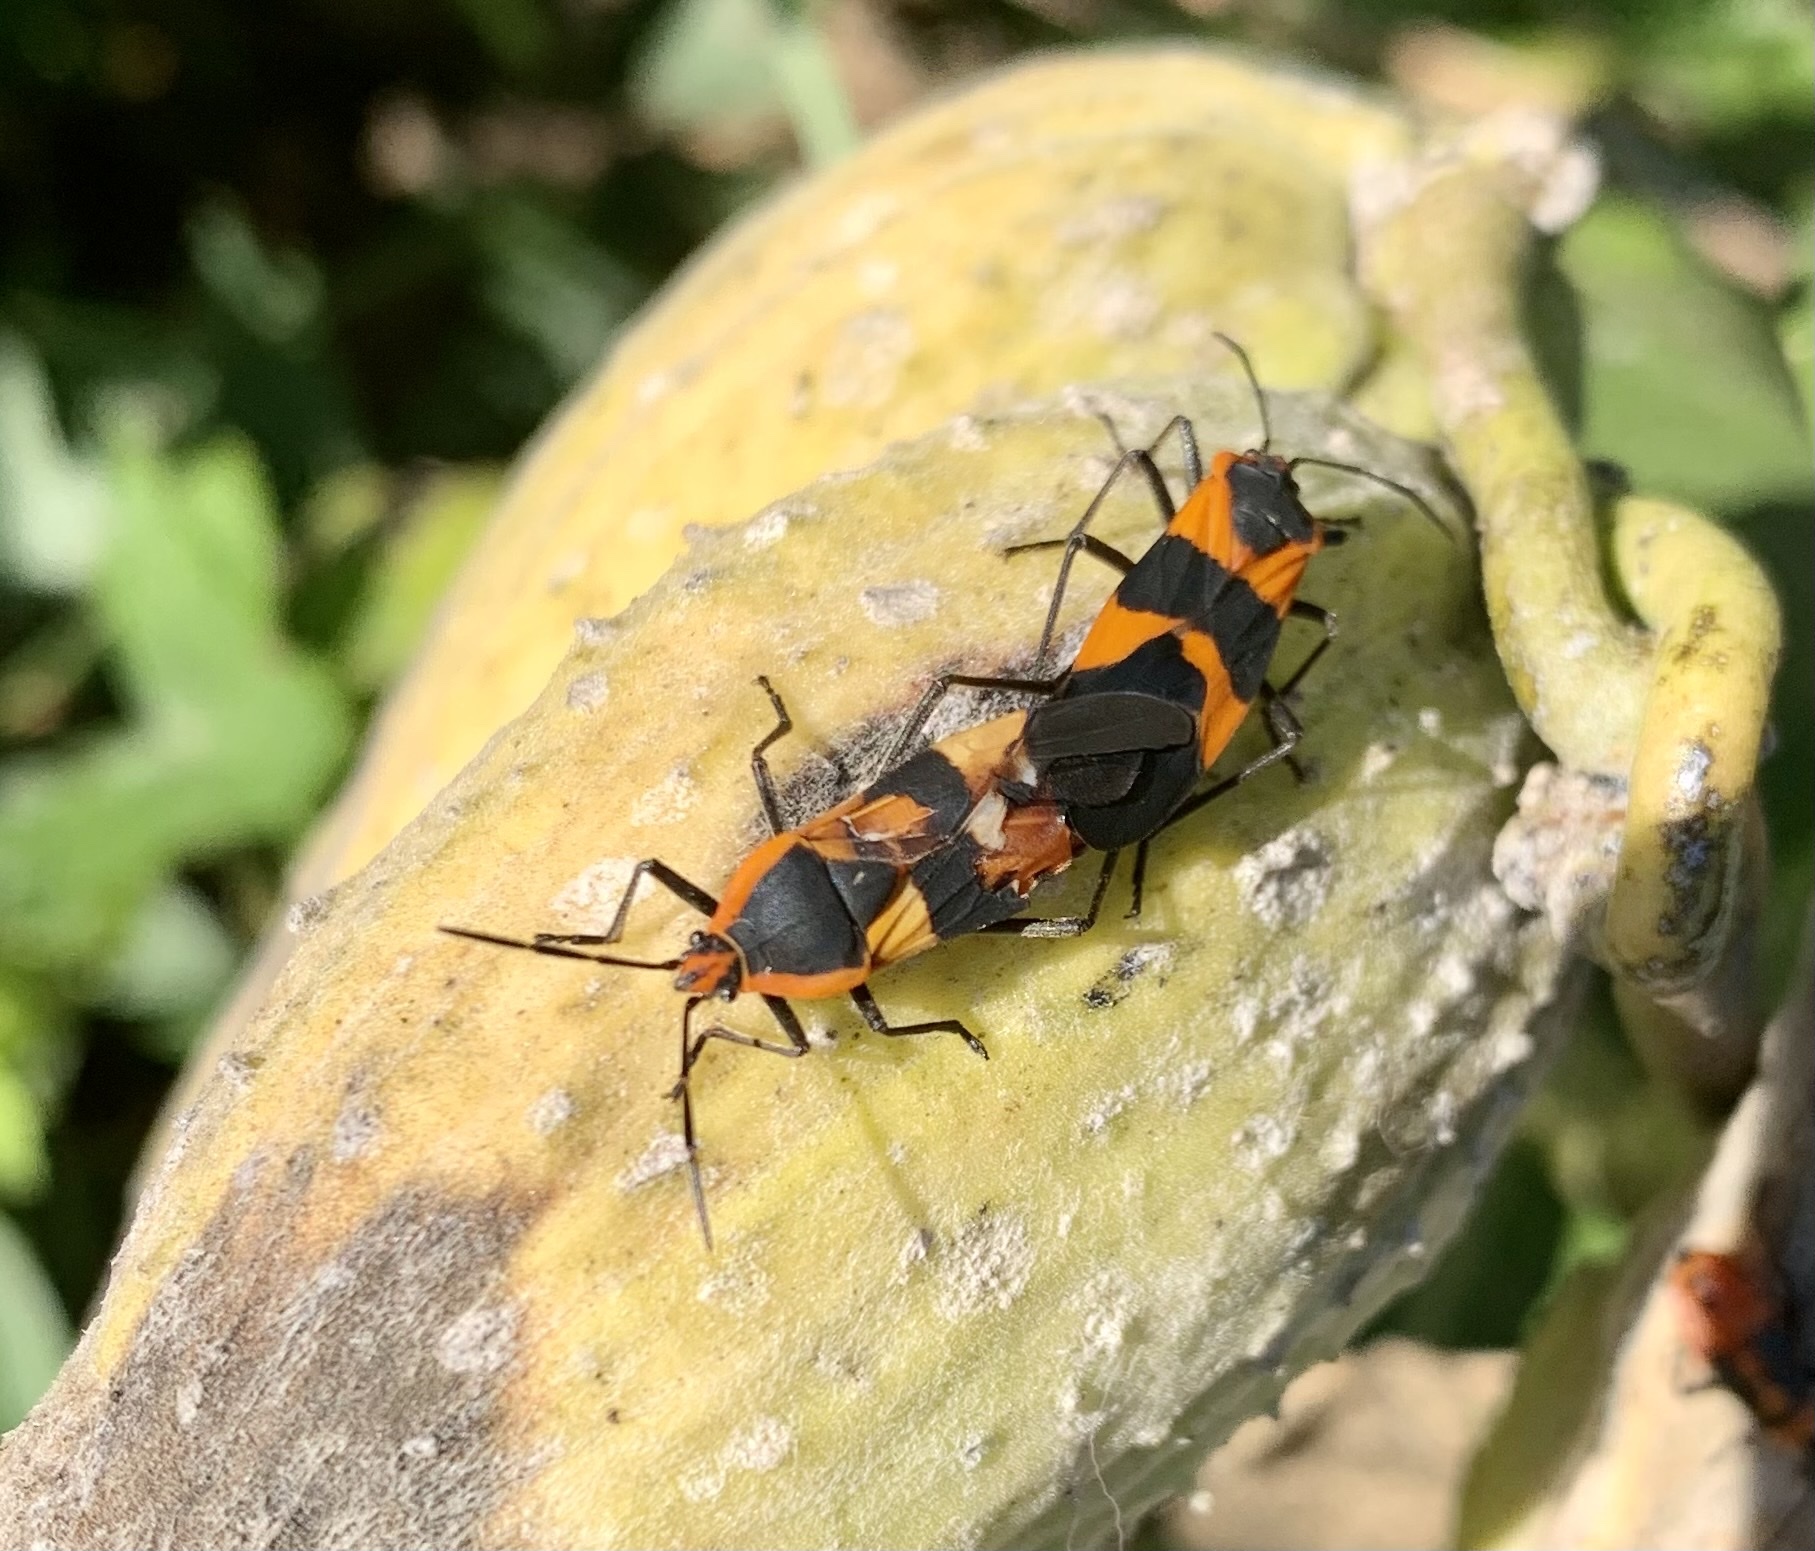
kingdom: Animalia
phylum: Arthropoda
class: Insecta
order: Hemiptera
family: Lygaeidae
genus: Oncopeltus
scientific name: Oncopeltus fasciatus
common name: Large milkweed bug
